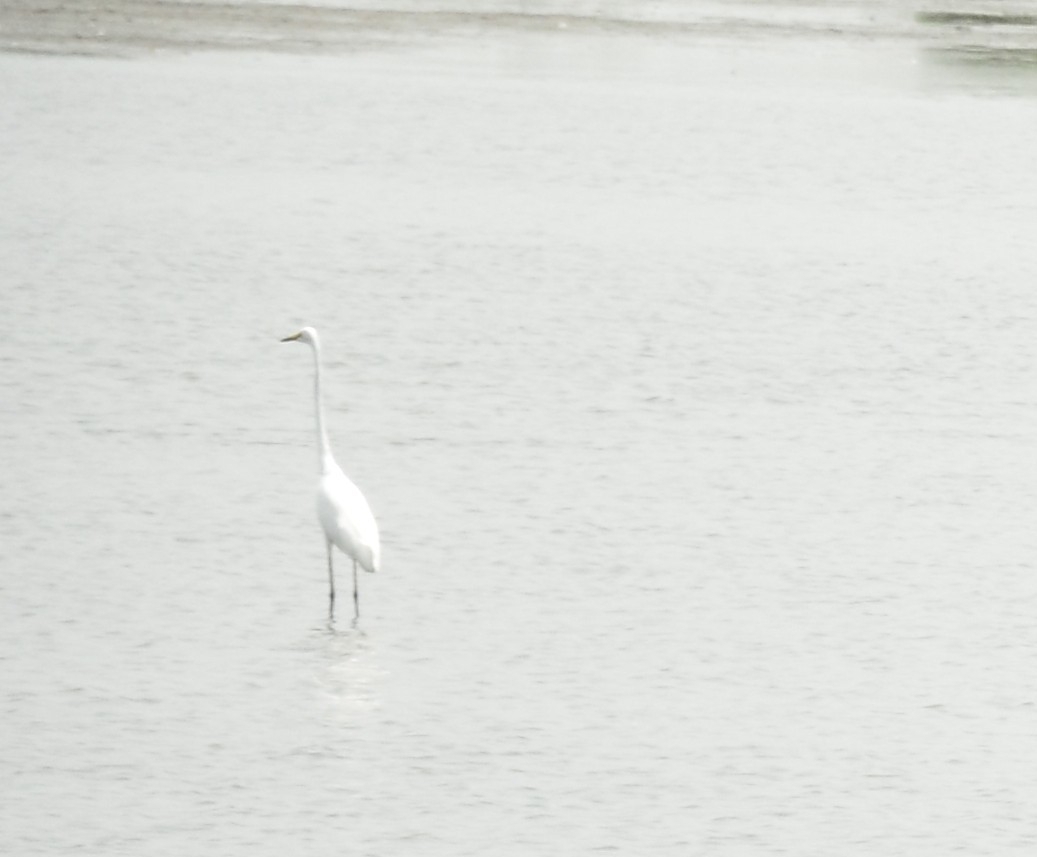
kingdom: Animalia
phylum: Chordata
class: Aves
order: Pelecaniformes
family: Ardeidae
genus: Ardea
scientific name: Ardea alba
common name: Great egret
